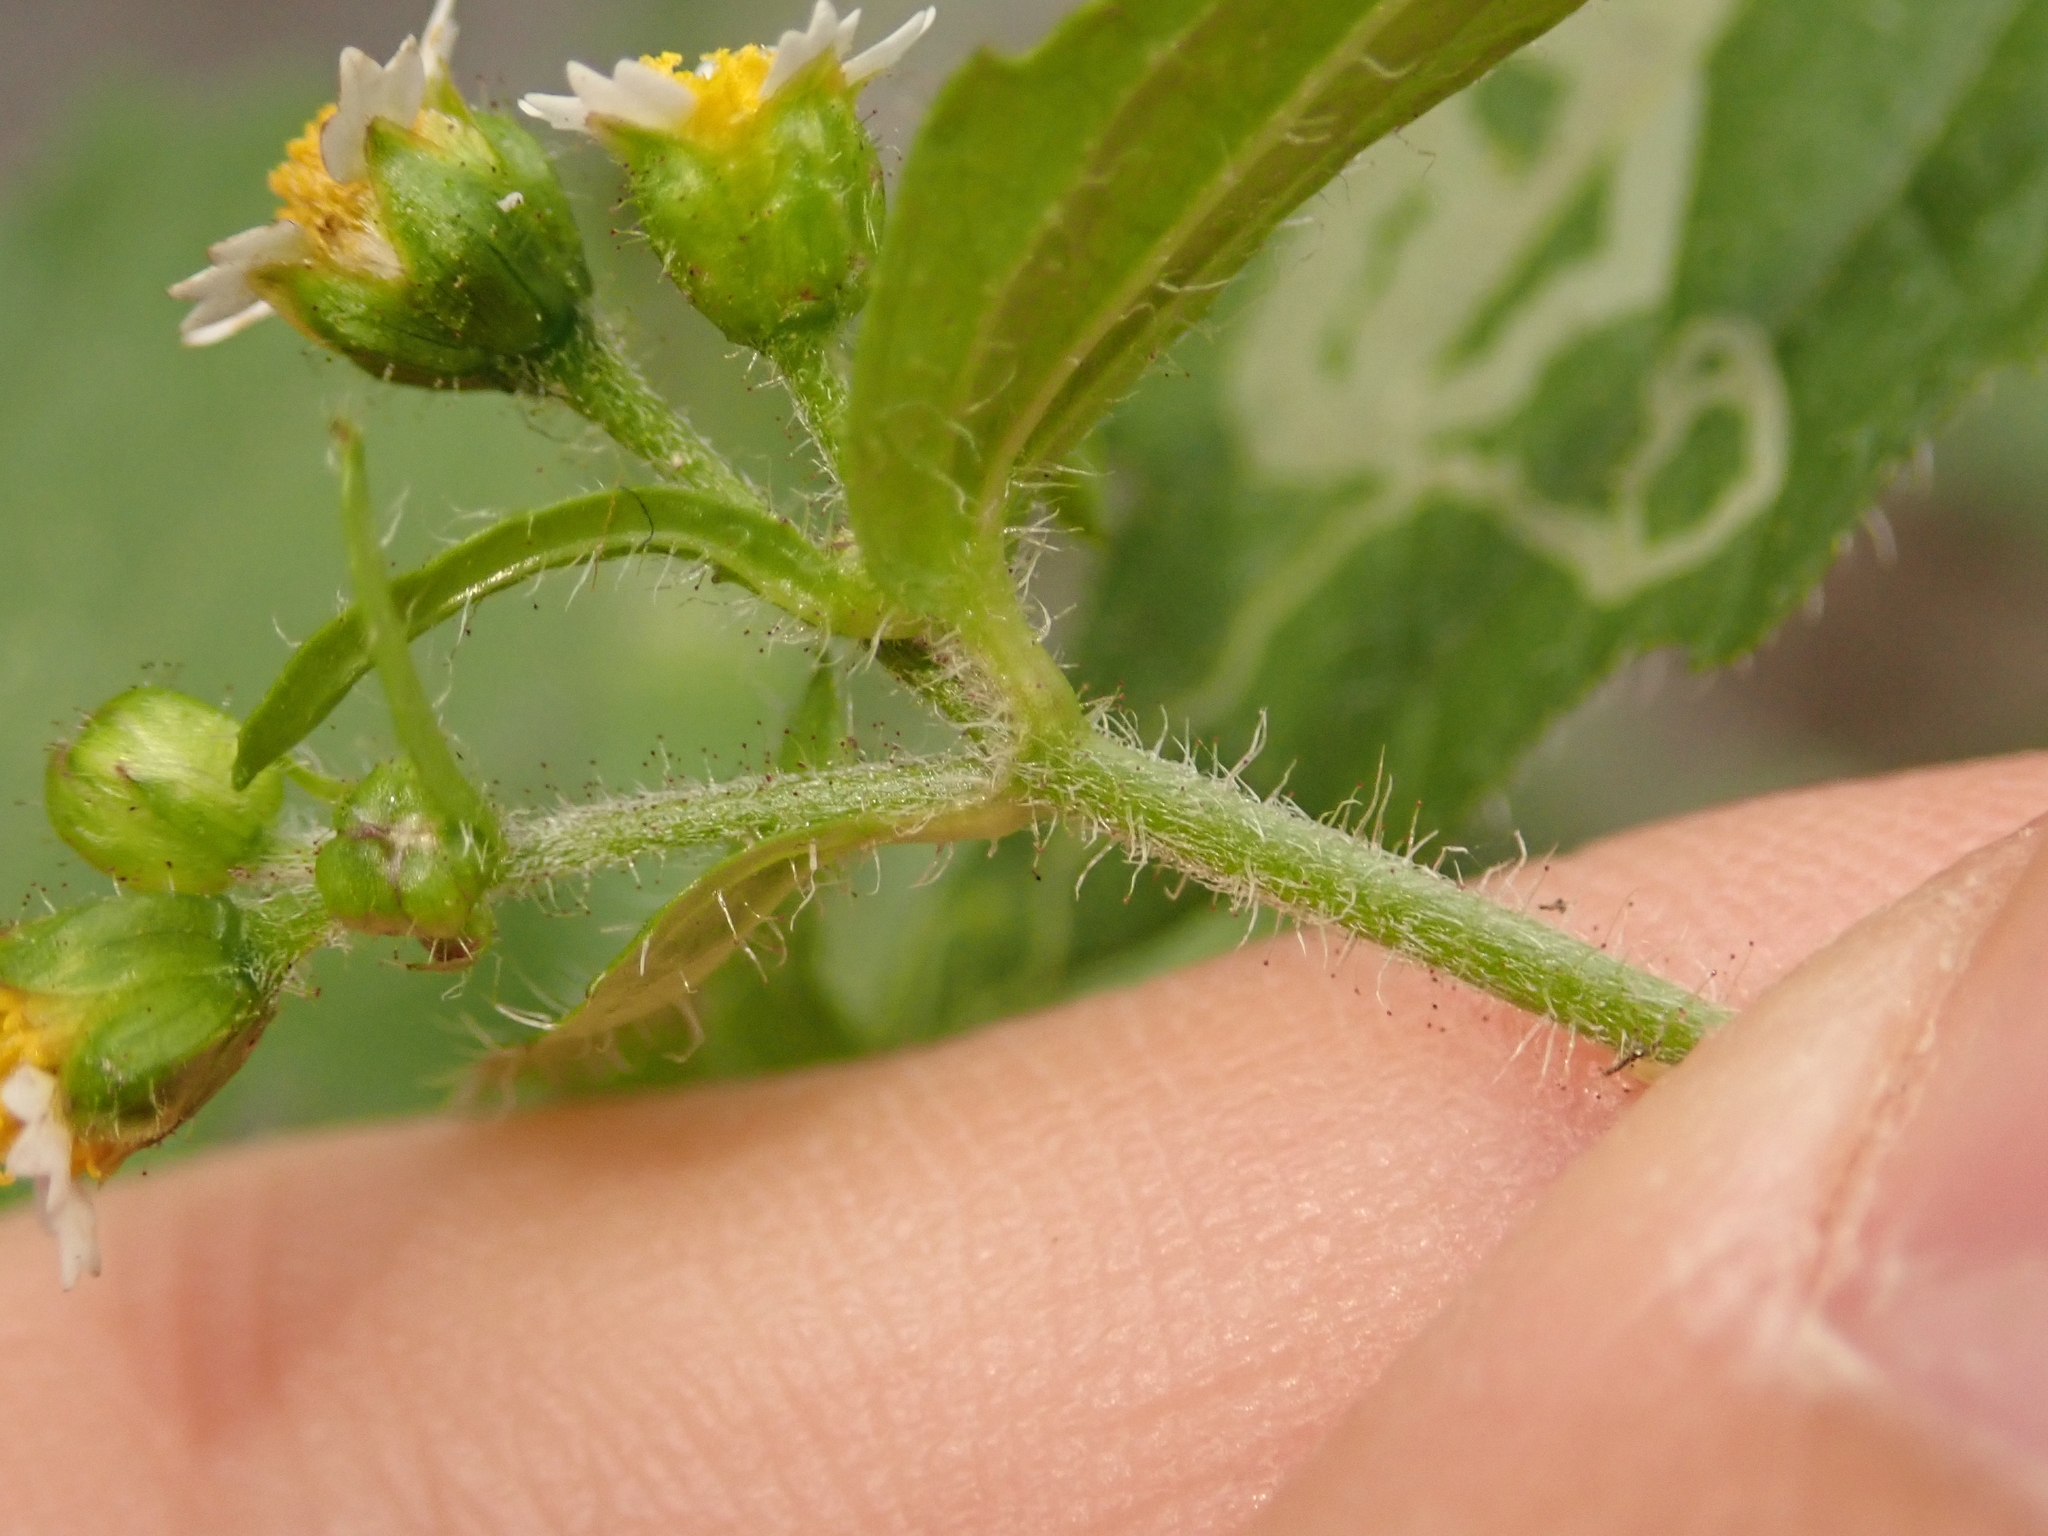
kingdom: Plantae
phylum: Tracheophyta
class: Magnoliopsida
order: Asterales
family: Asteraceae
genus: Galinsoga
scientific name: Galinsoga quadriradiata
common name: Shaggy soldier
